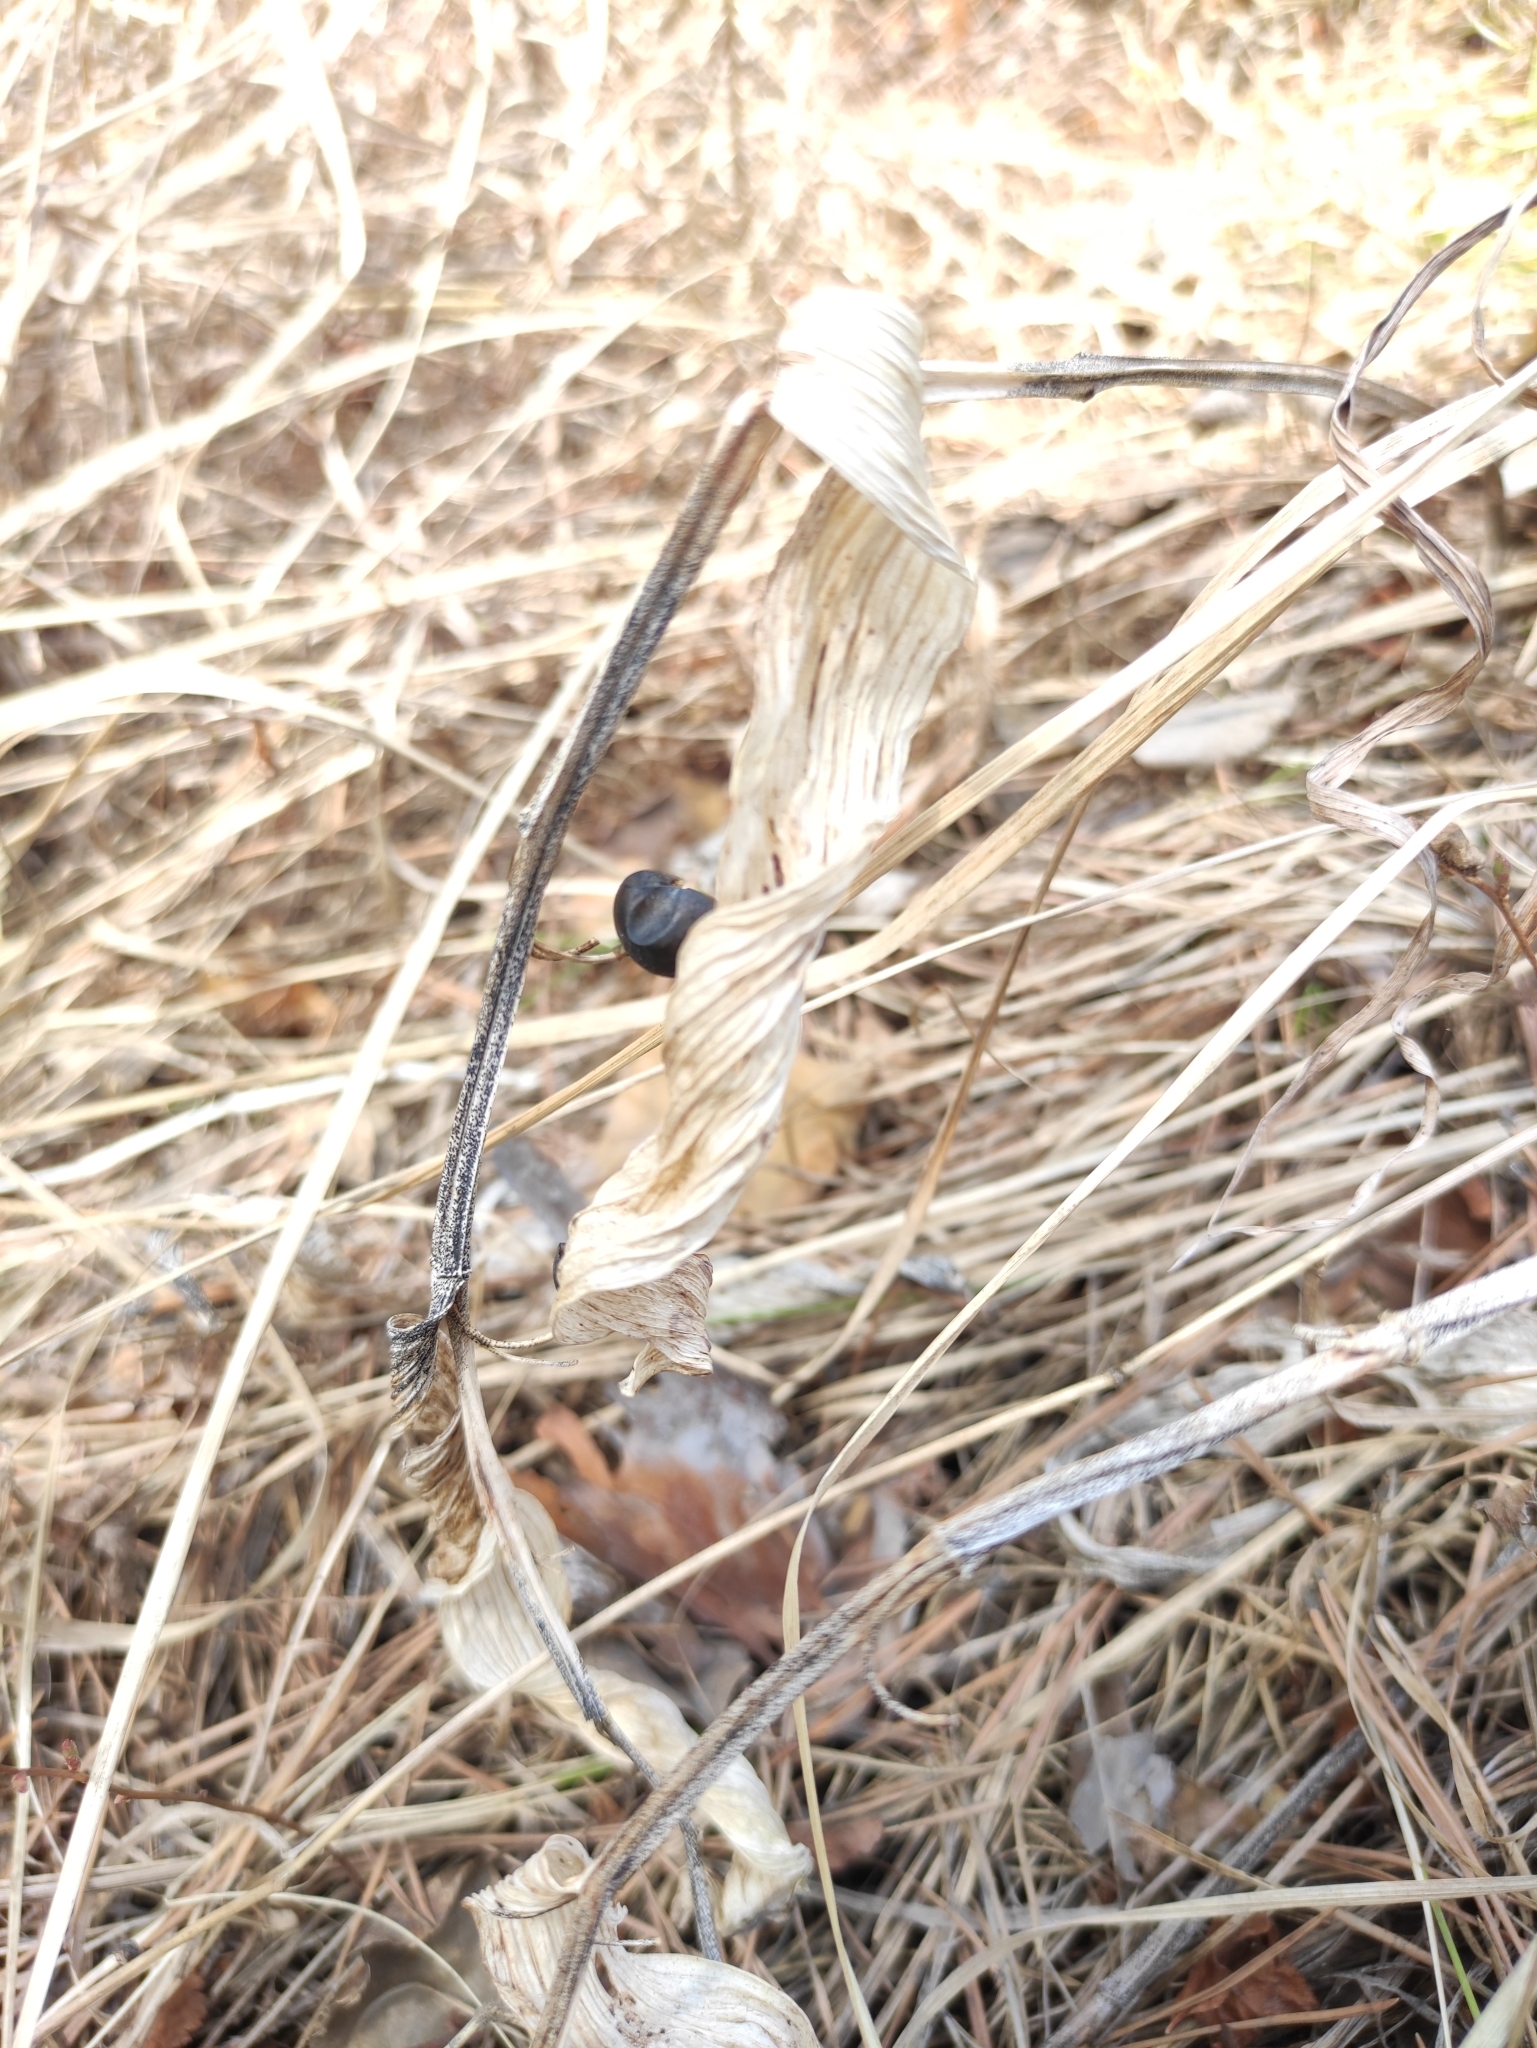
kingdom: Plantae
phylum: Tracheophyta
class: Liliopsida
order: Asparagales
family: Asparagaceae
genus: Polygonatum
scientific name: Polygonatum odoratum
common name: Angular solomon's-seal
